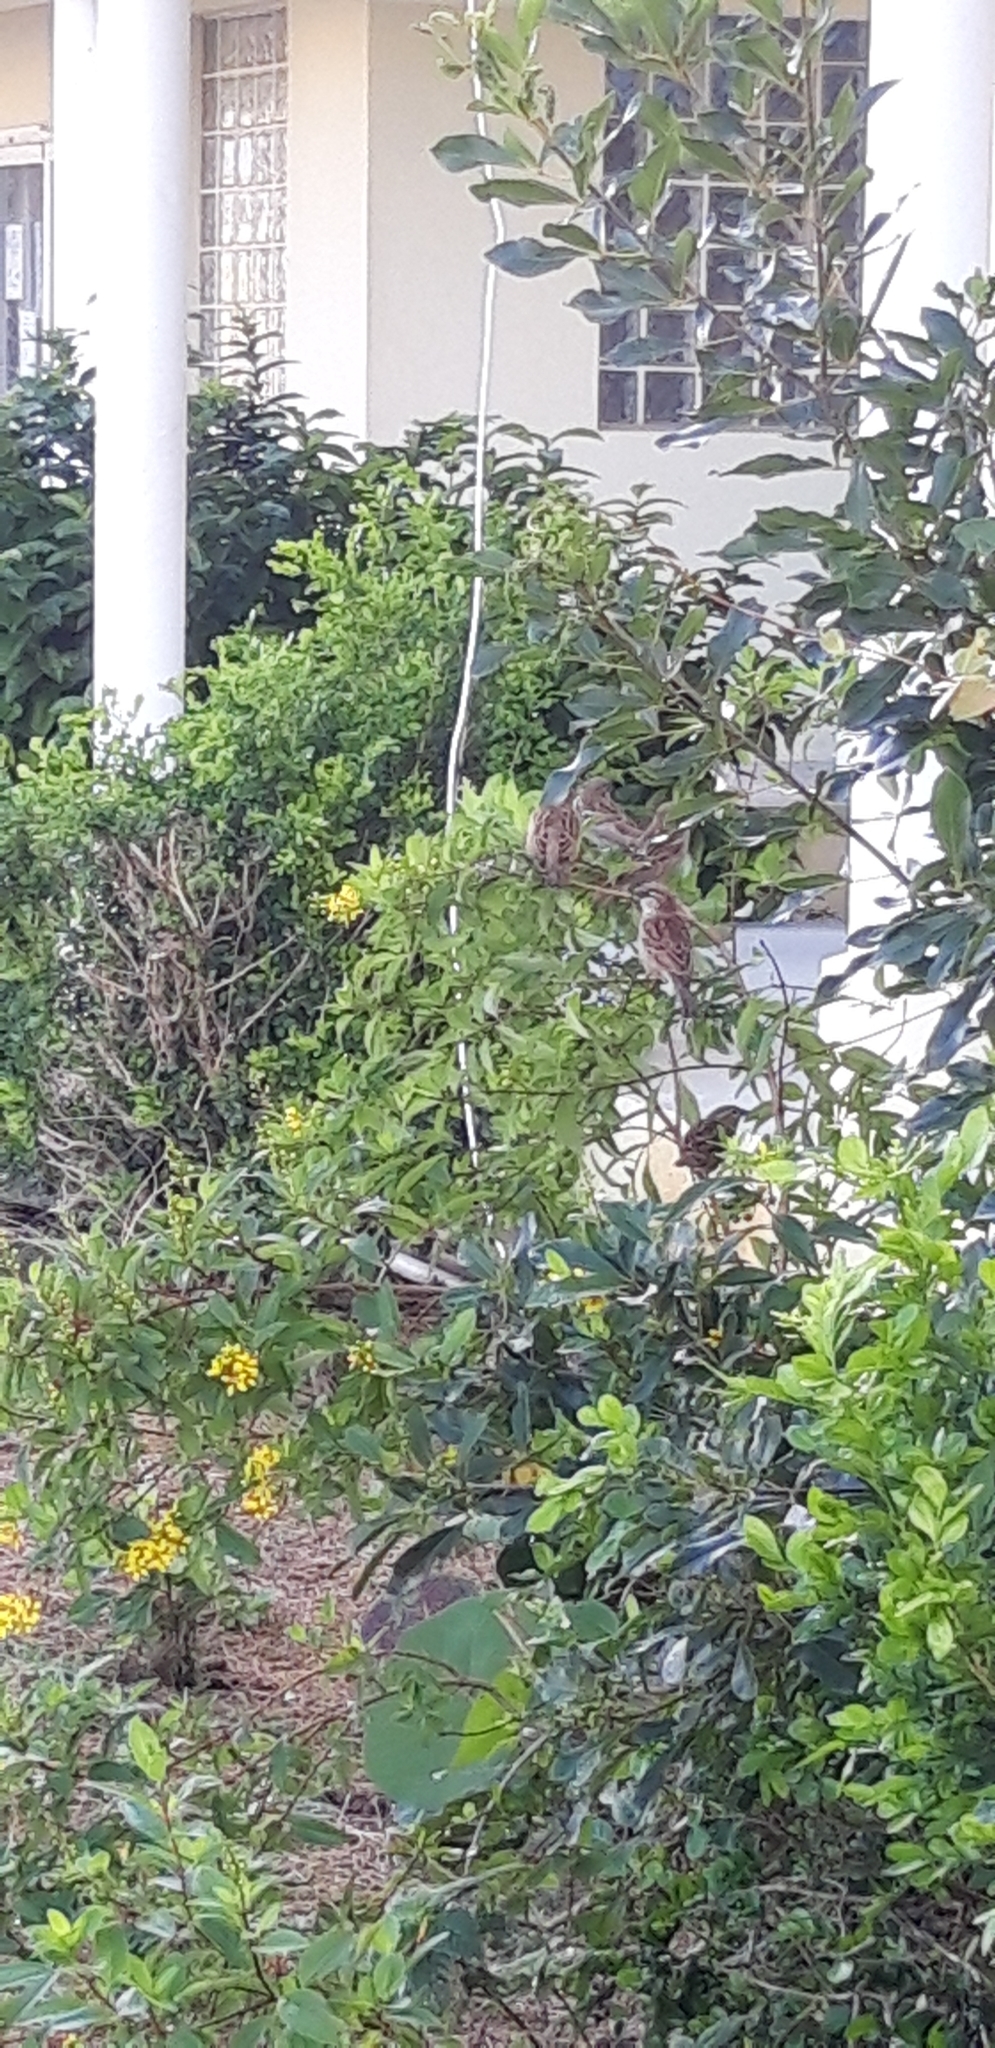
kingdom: Animalia
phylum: Chordata
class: Aves
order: Passeriformes
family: Passeridae
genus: Passer
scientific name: Passer domesticus
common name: House sparrow
